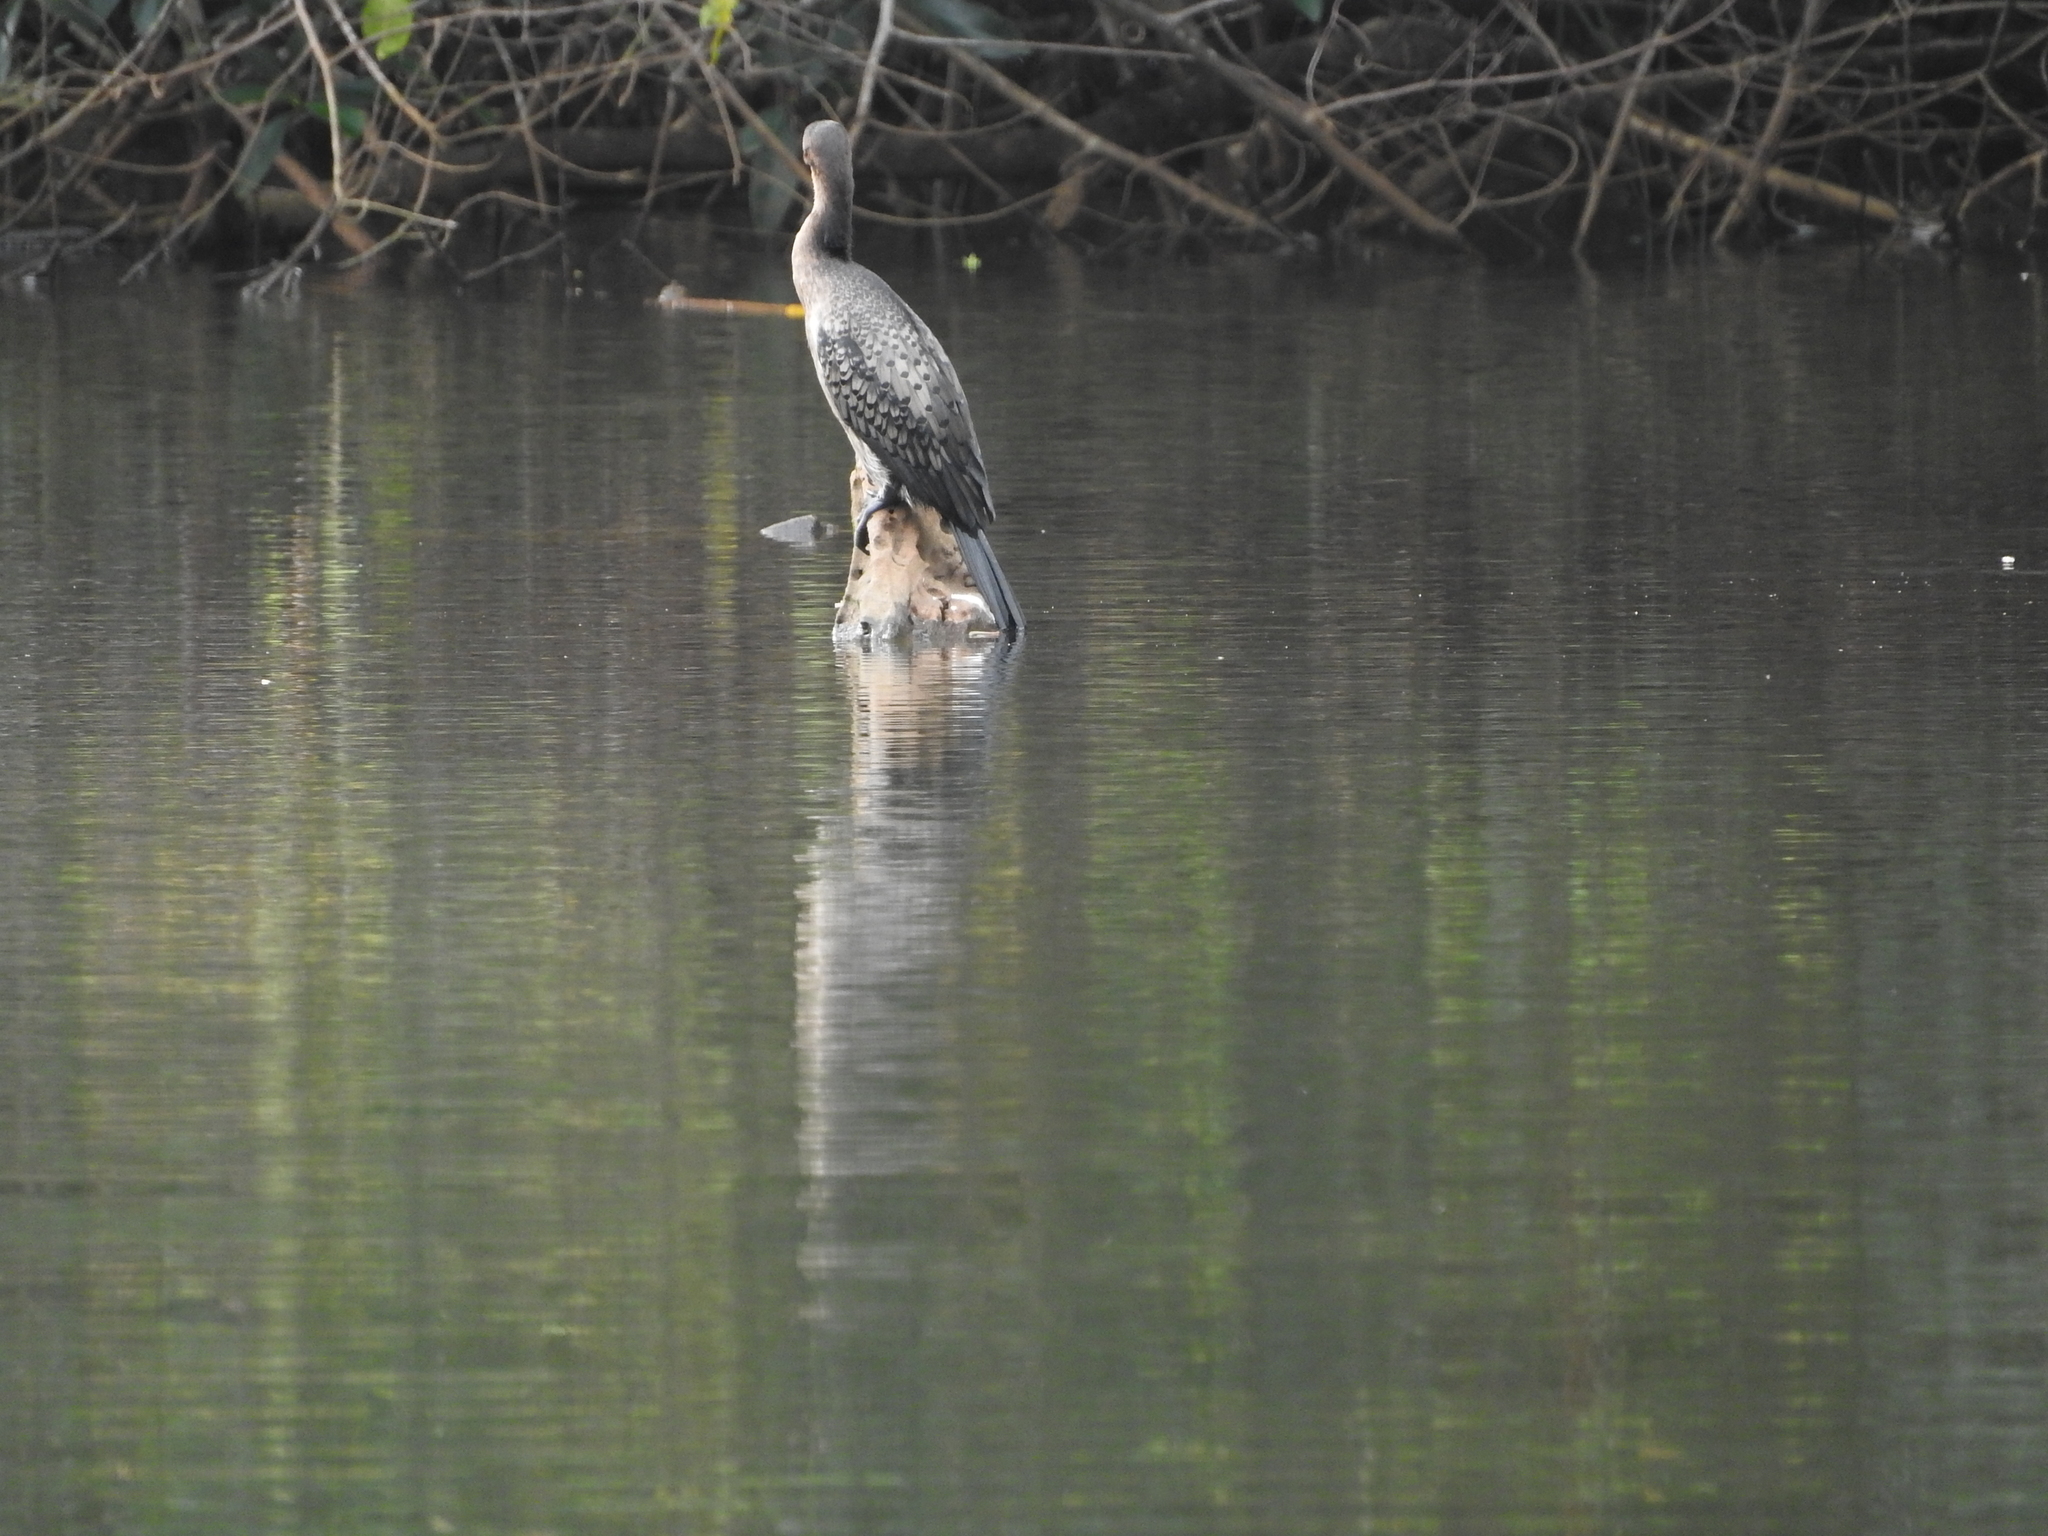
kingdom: Animalia
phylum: Chordata
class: Aves
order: Suliformes
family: Phalacrocoracidae
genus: Microcarbo
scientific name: Microcarbo africanus
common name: Long-tailed cormorant
